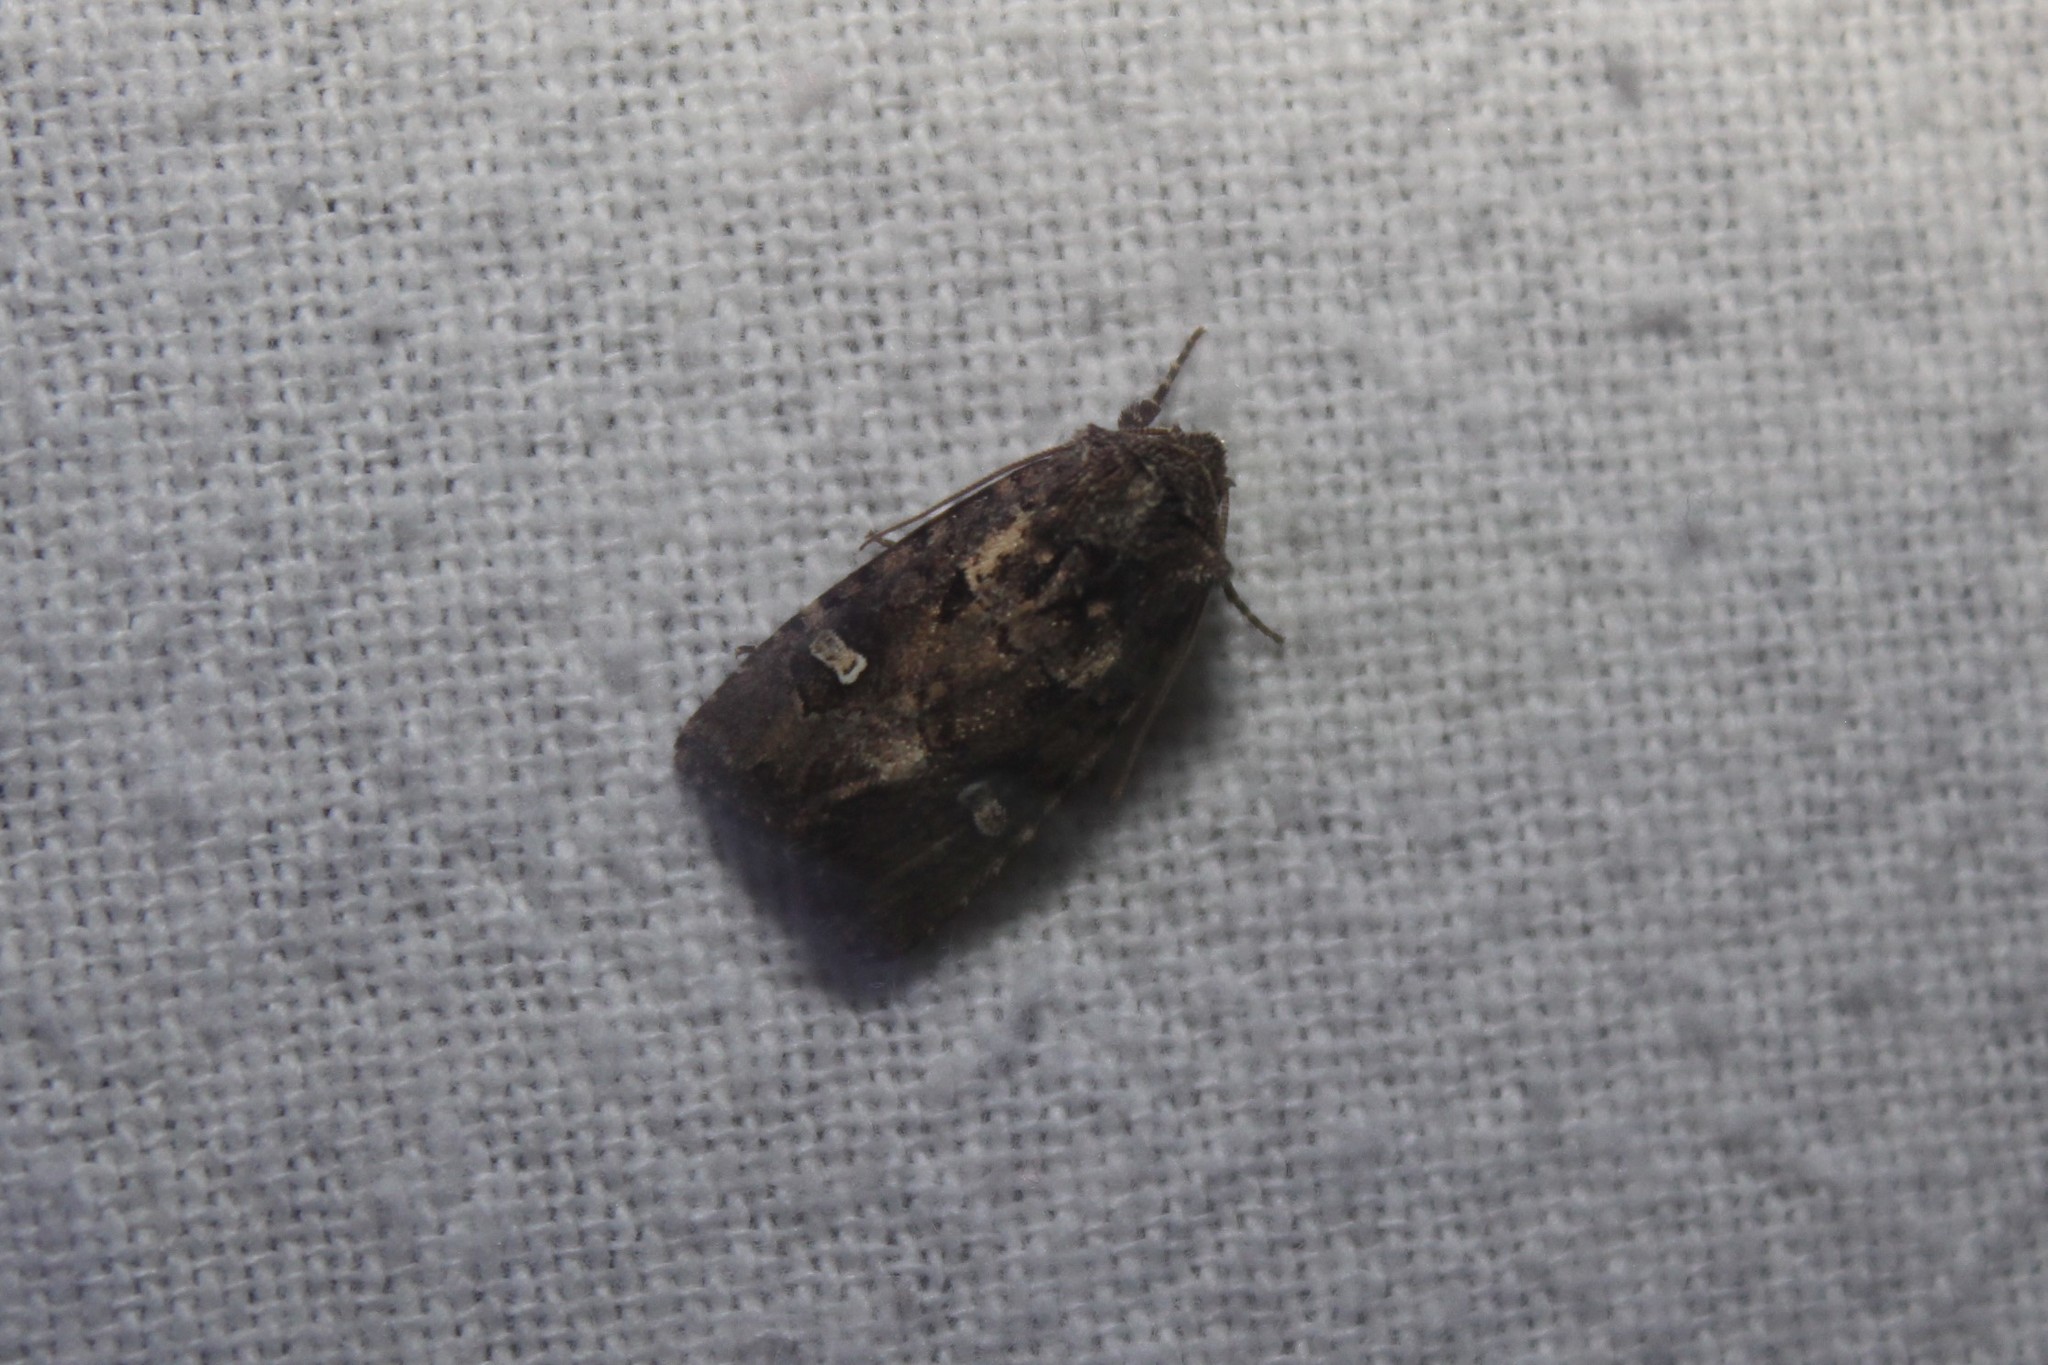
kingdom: Animalia
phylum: Arthropoda
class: Insecta
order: Lepidoptera
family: Noctuidae
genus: Lacinipolia
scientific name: Lacinipolia renigera
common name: Kidney-spotted minor
